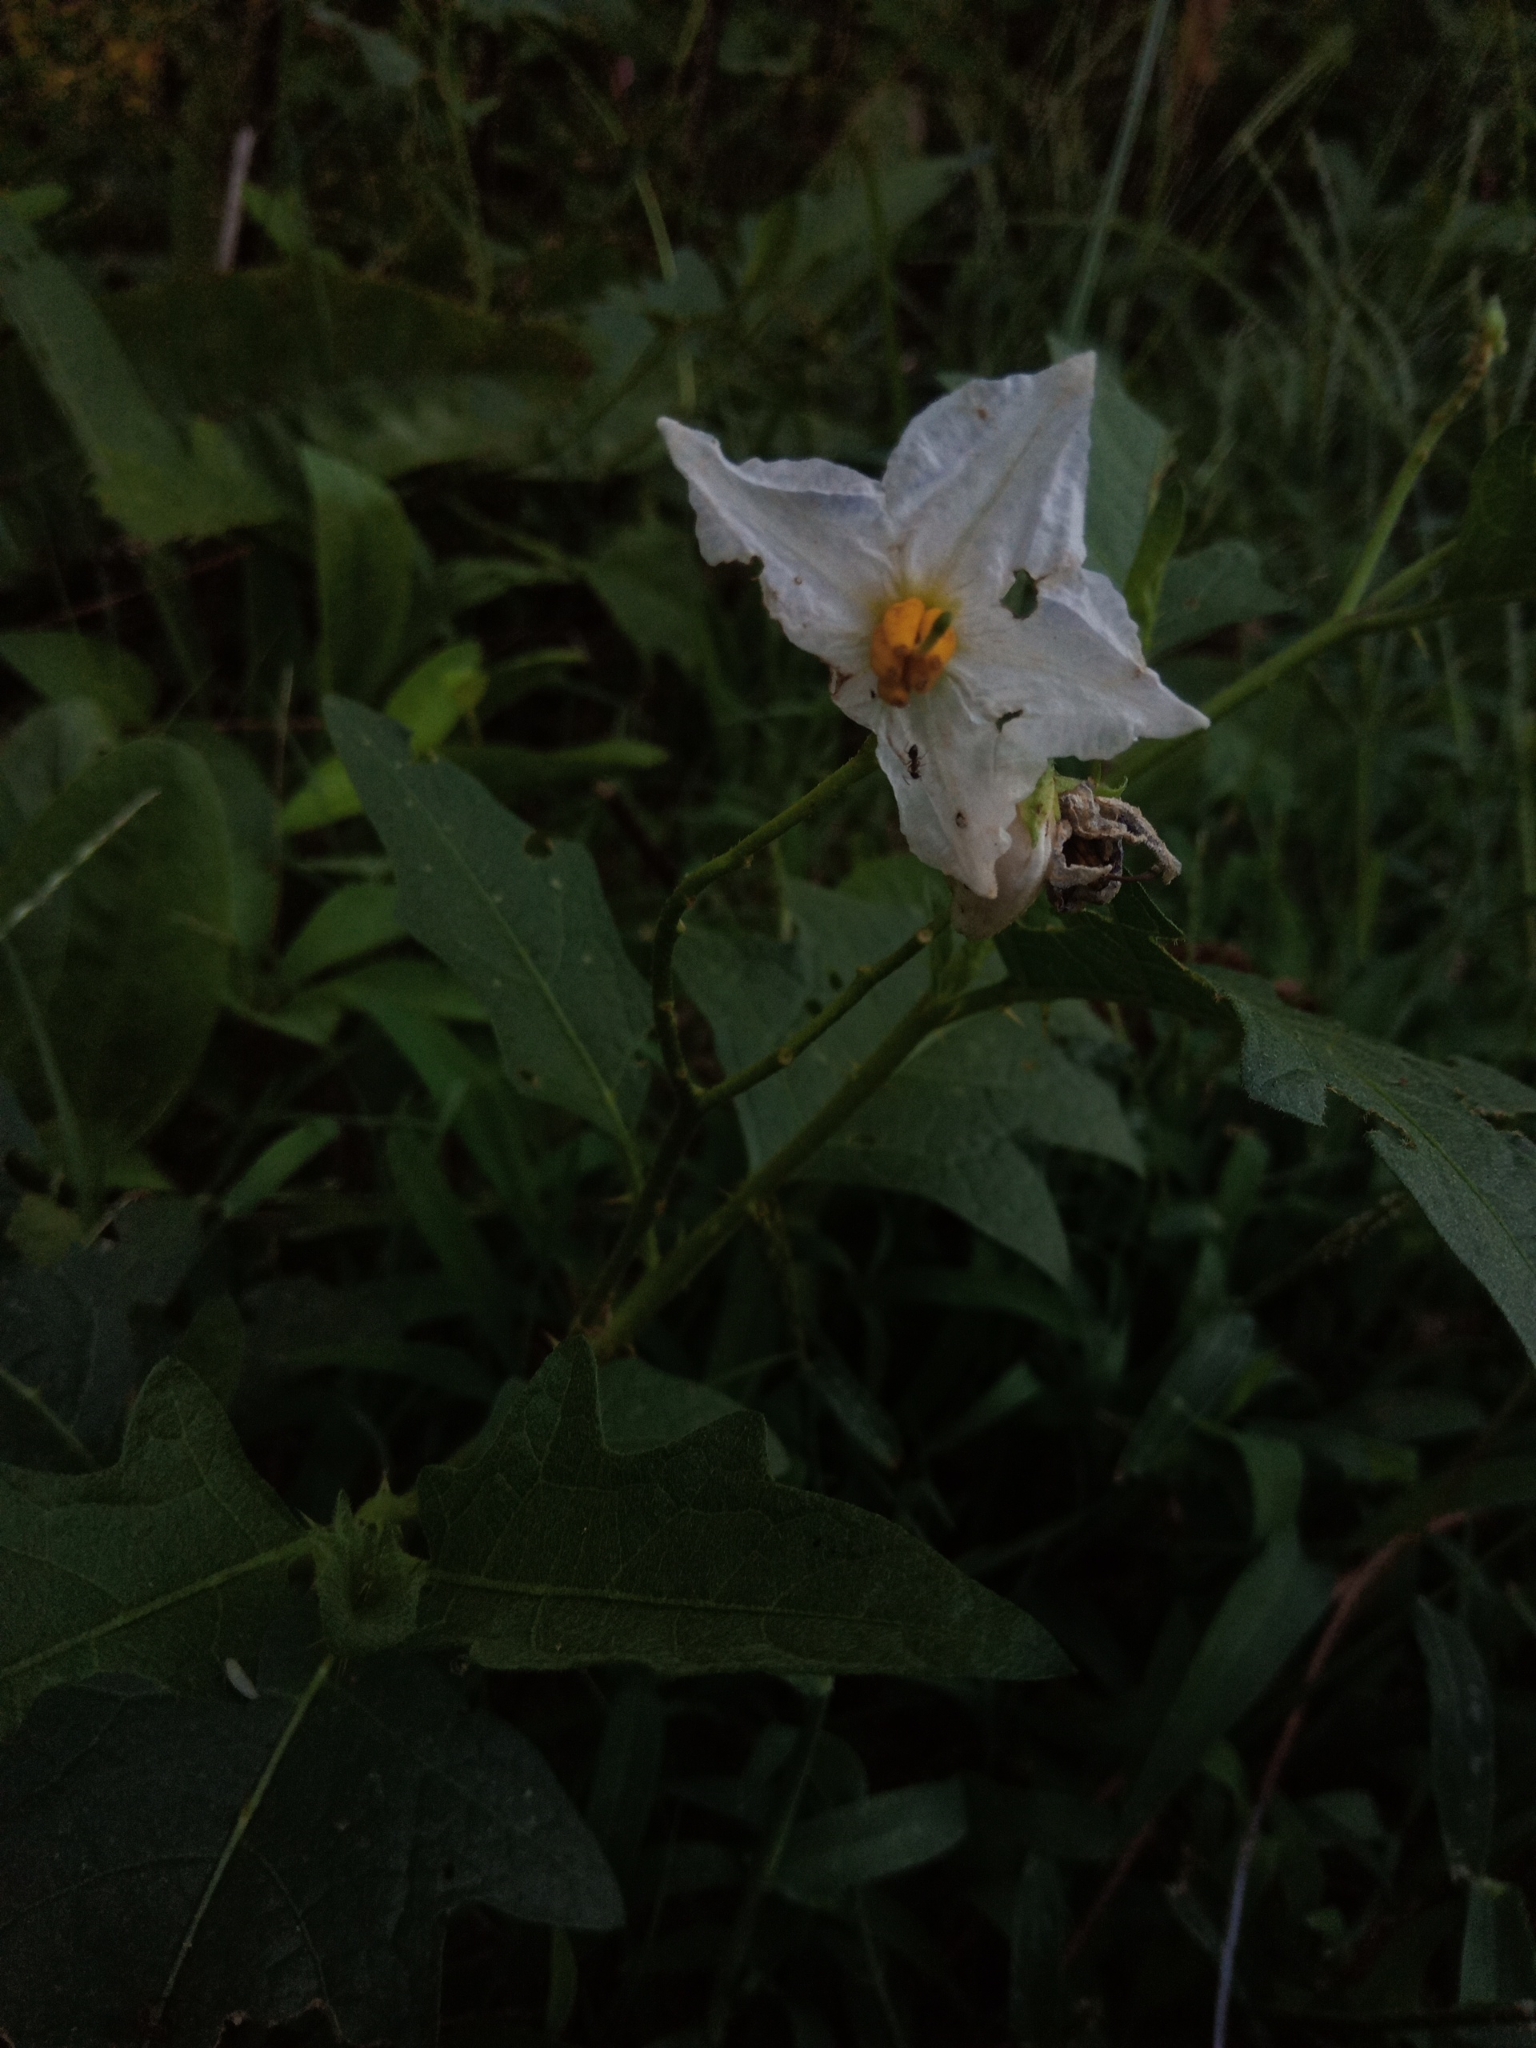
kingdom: Plantae
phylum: Tracheophyta
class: Magnoliopsida
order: Solanales
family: Solanaceae
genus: Solanum
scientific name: Solanum carolinense
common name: Horse-nettle
